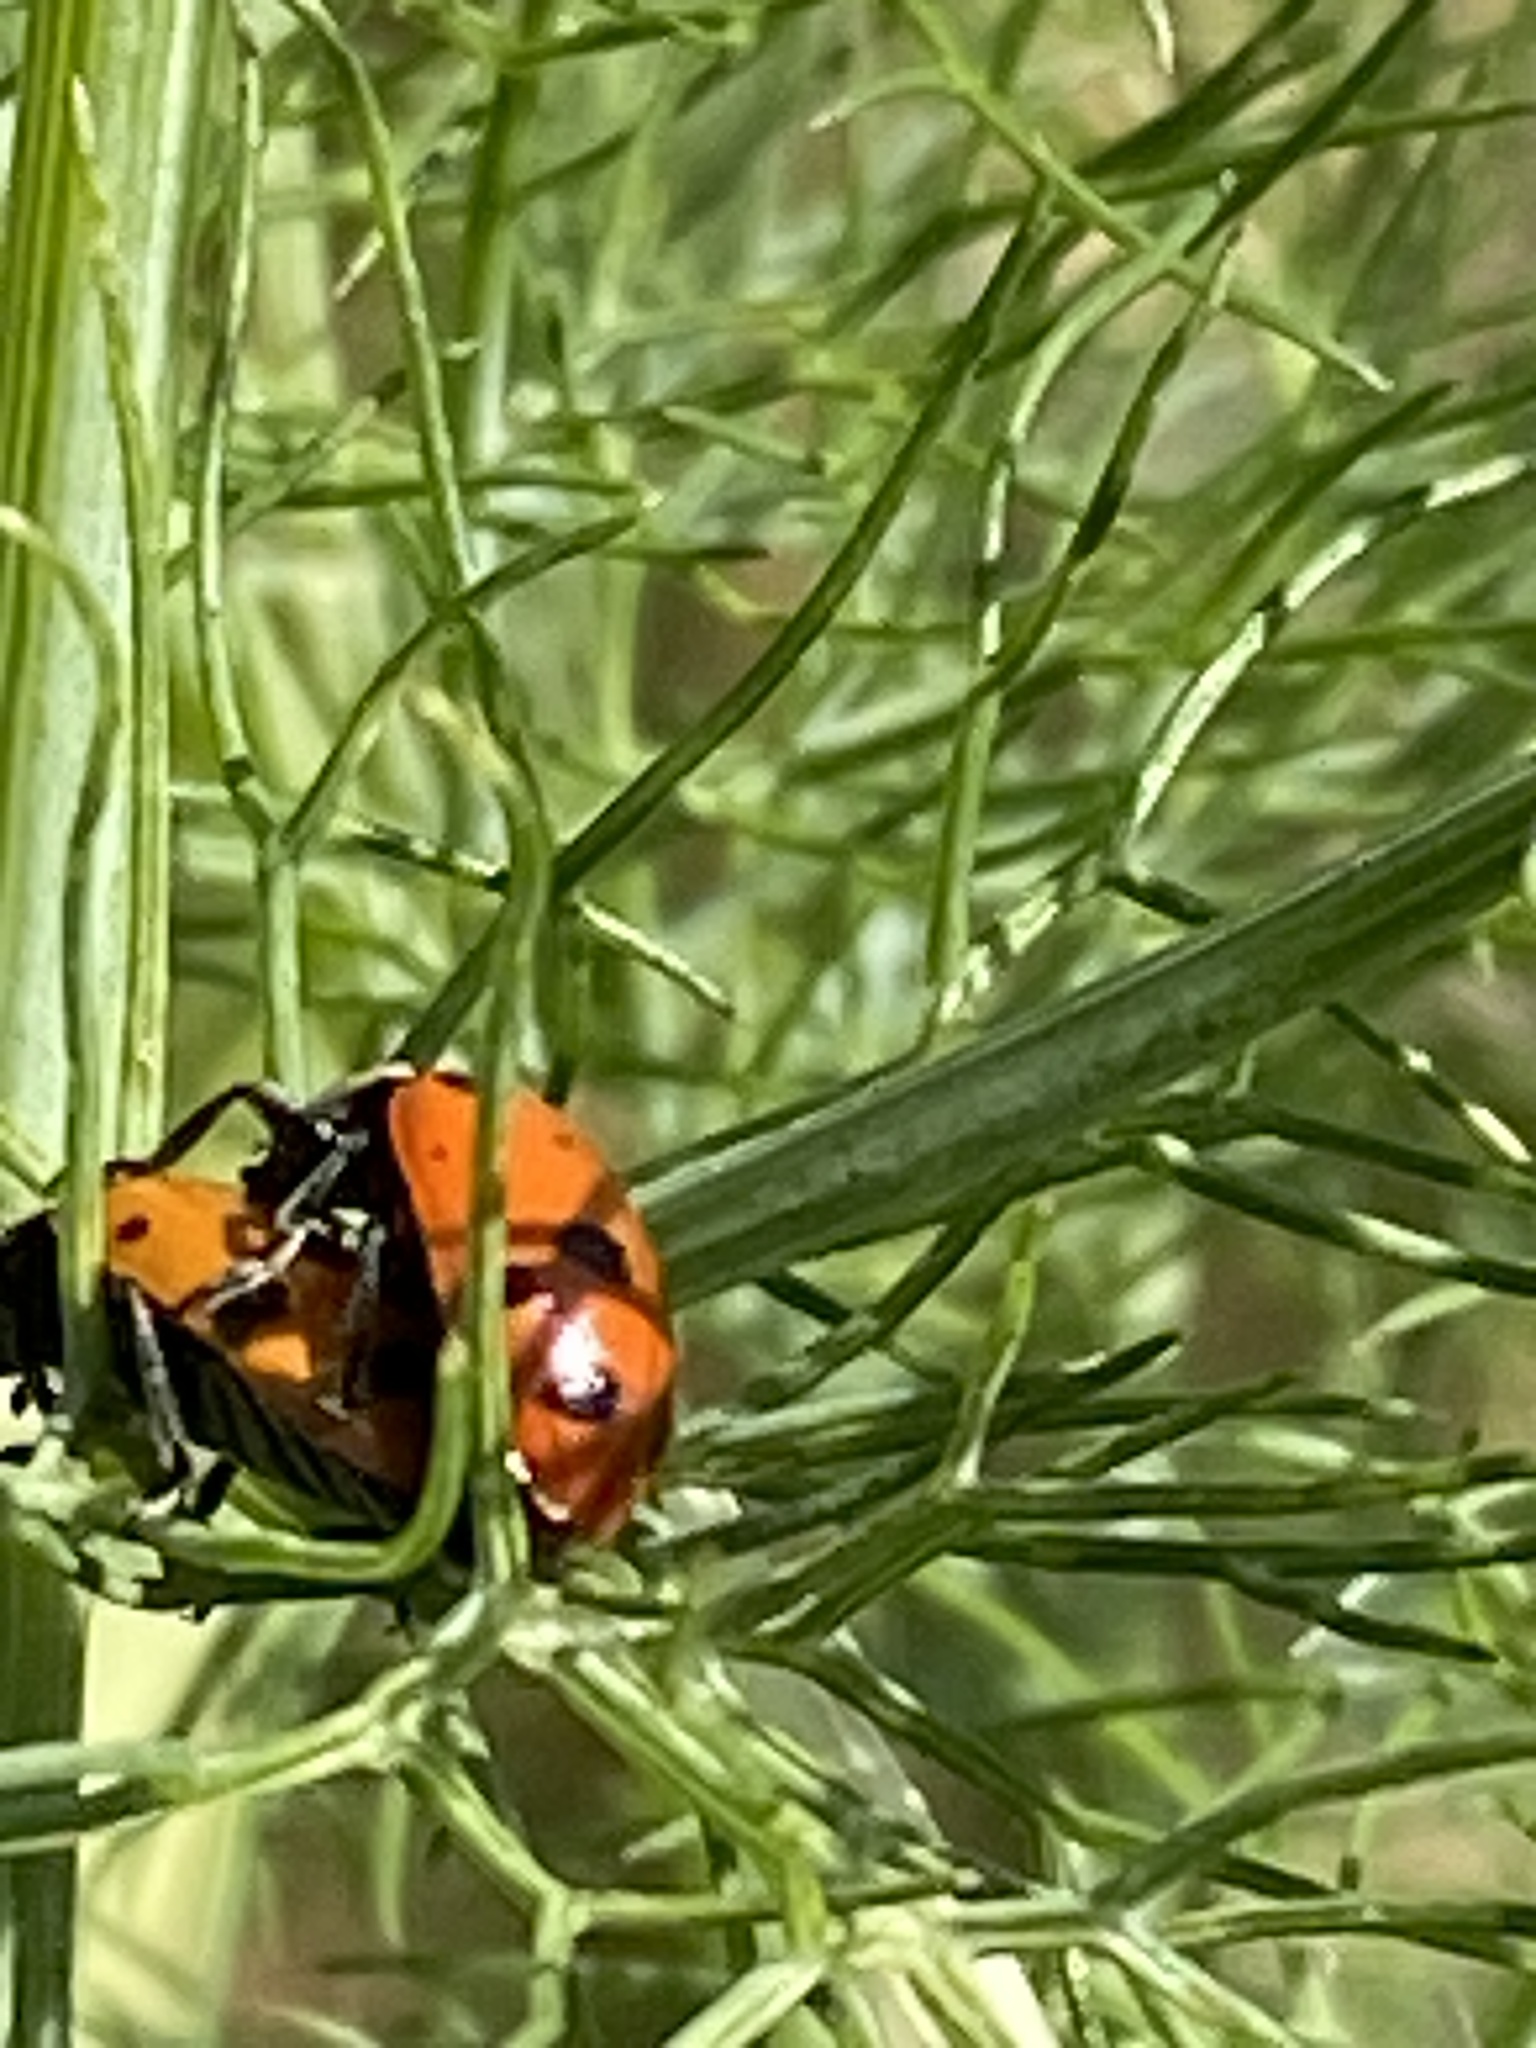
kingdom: Animalia
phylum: Arthropoda
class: Insecta
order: Coleoptera
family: Coccinellidae
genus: Hippodamia
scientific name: Hippodamia convergens
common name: Convergent lady beetle
